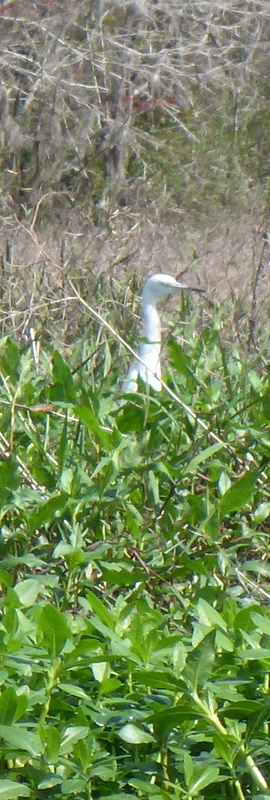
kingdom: Animalia
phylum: Chordata
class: Aves
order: Pelecaniformes
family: Ardeidae
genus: Egretta
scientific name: Egretta caerulea
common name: Little blue heron
